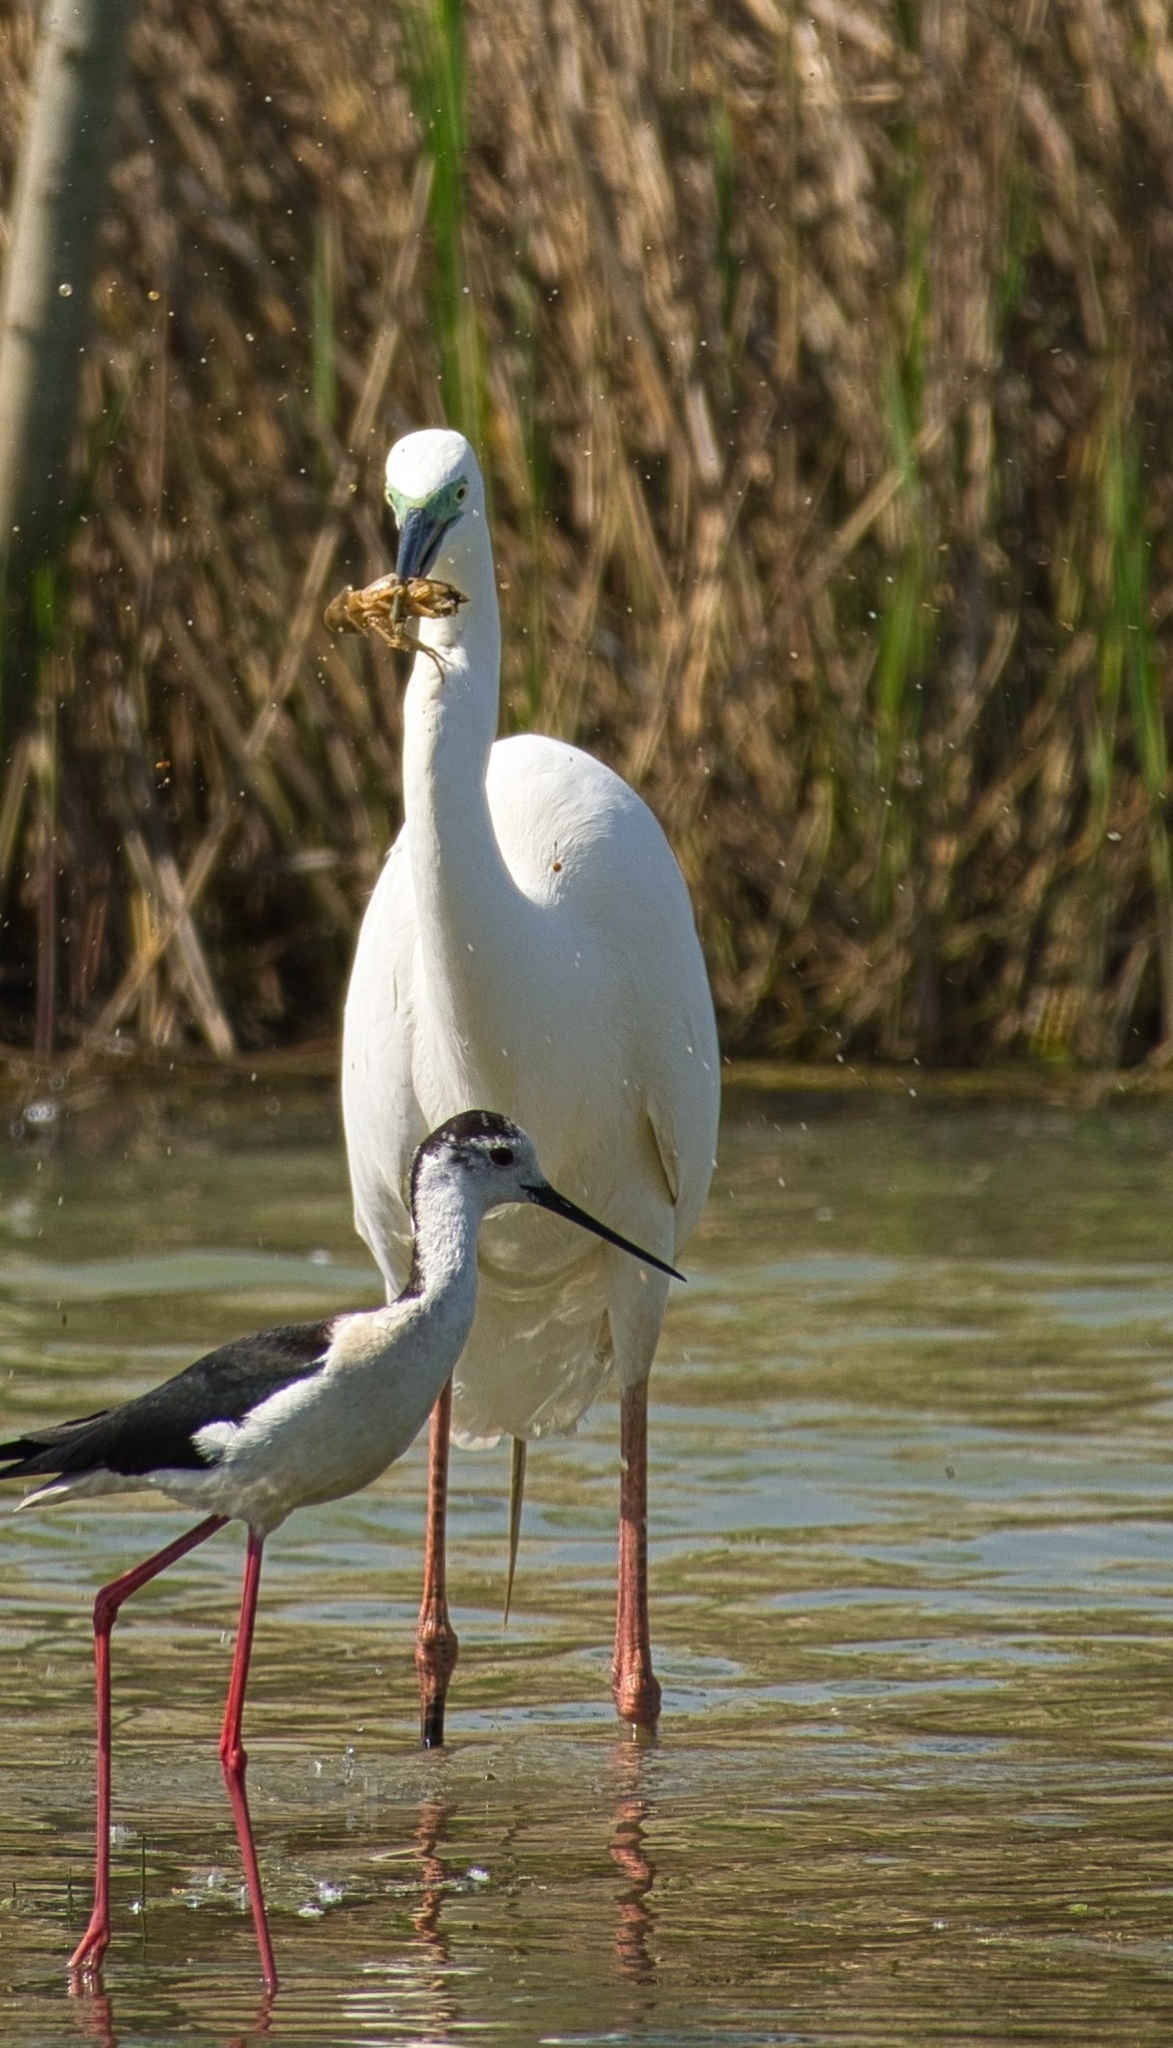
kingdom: Animalia
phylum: Chordata
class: Aves
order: Pelecaniformes
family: Ardeidae
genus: Ardea
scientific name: Ardea alba
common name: Great egret
